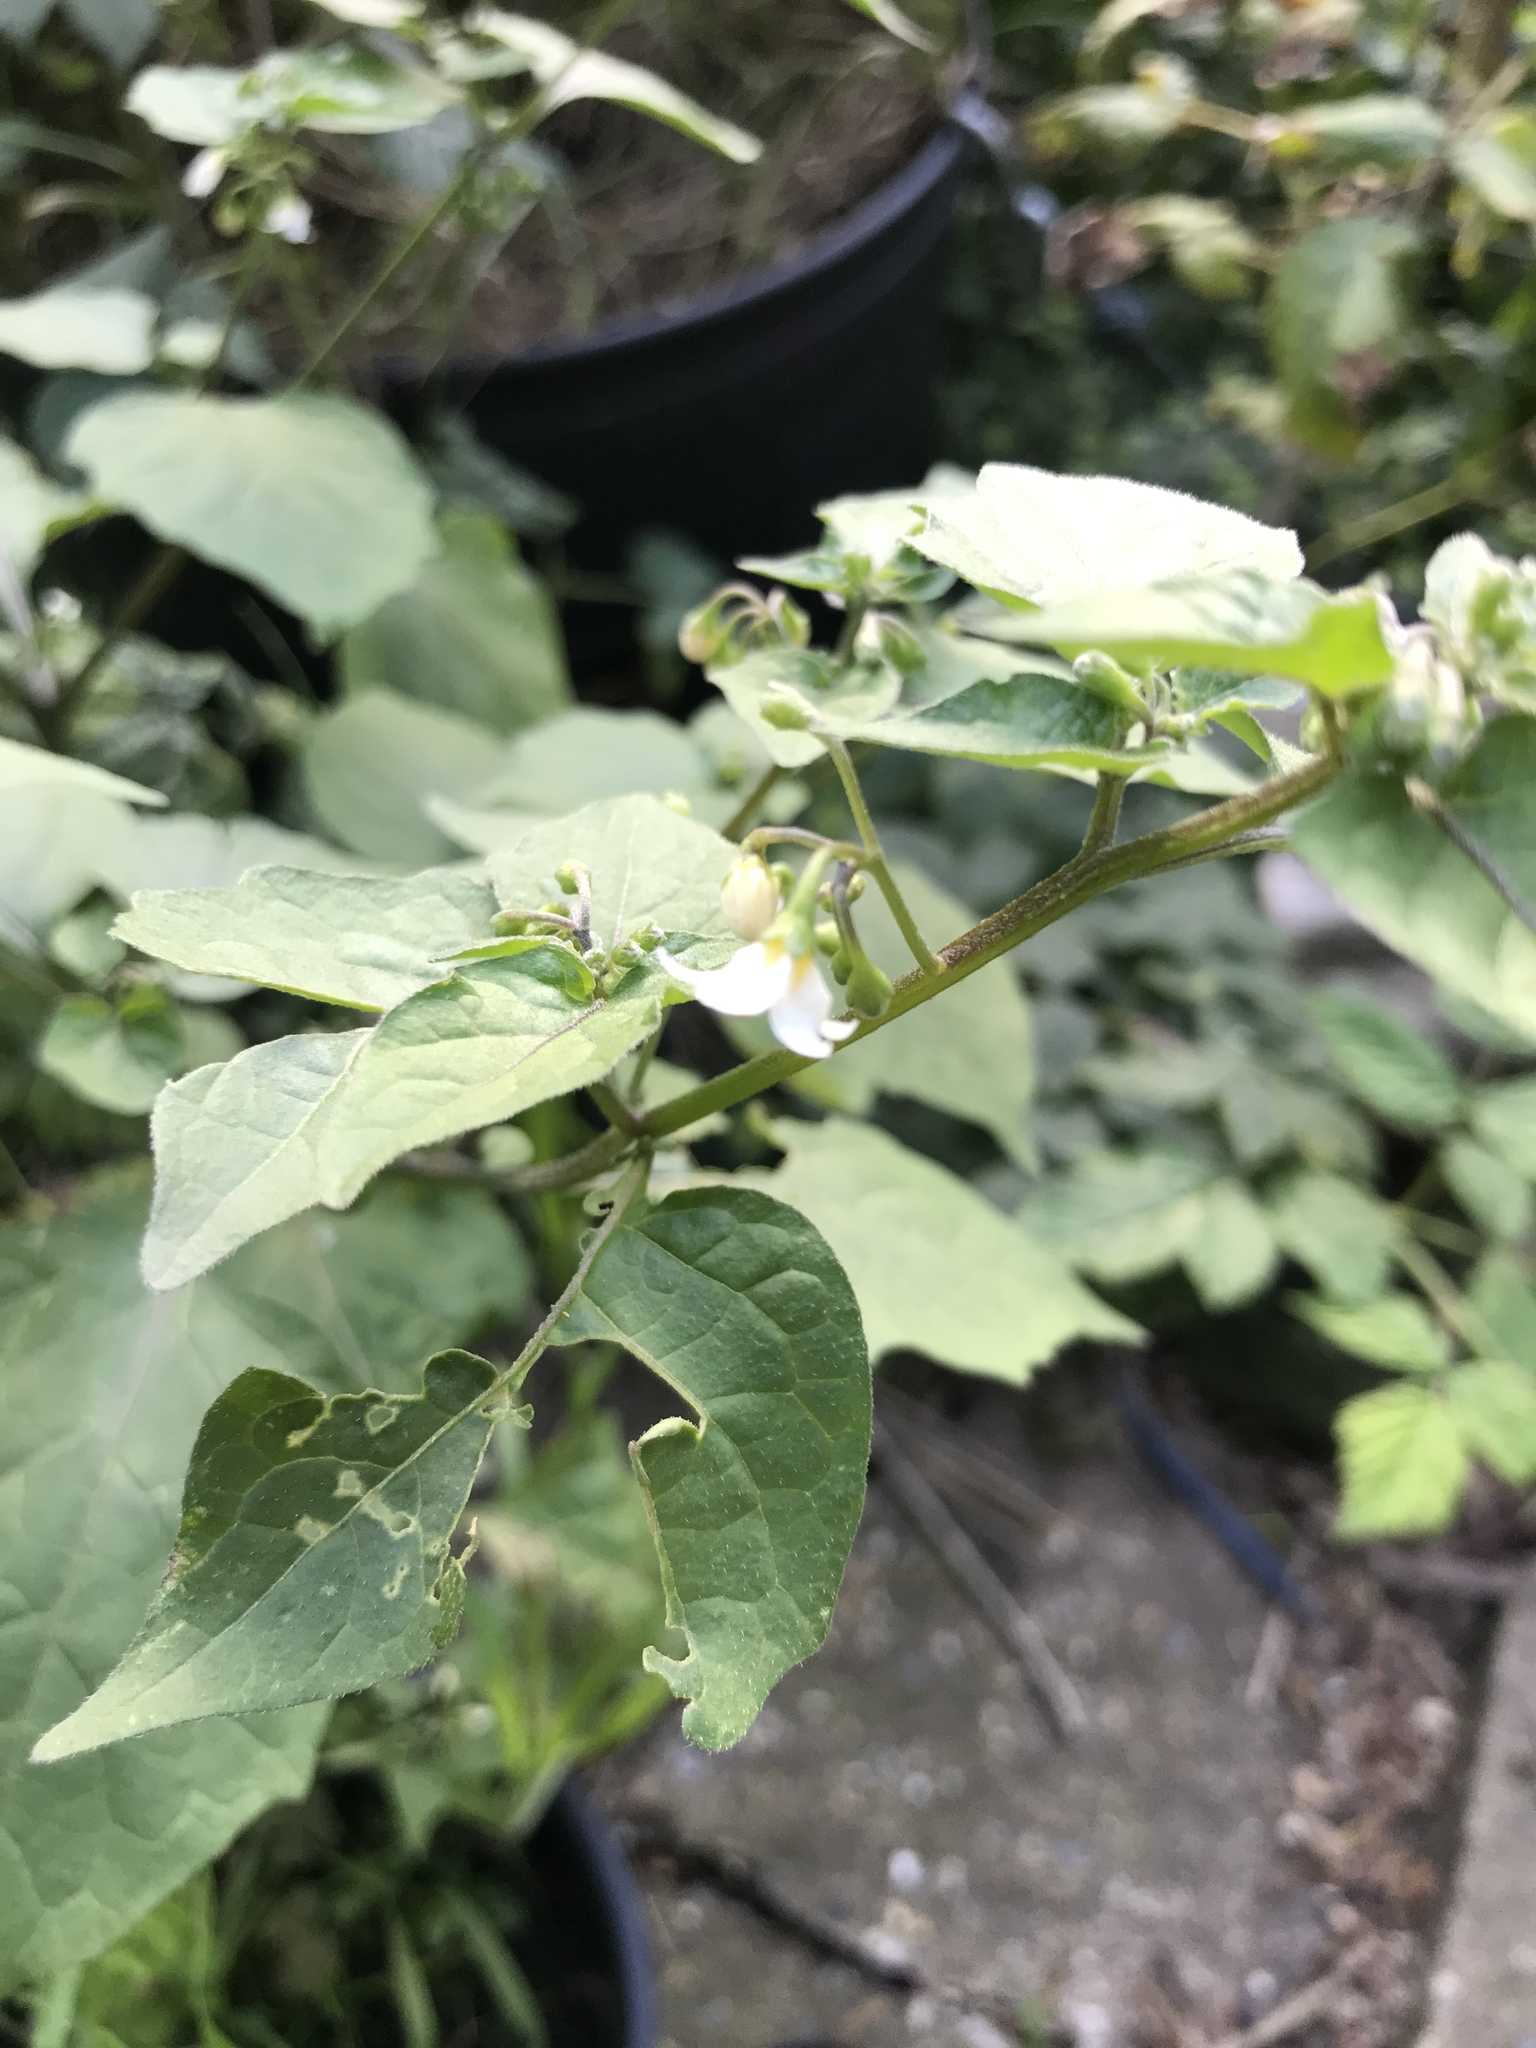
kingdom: Plantae
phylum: Tracheophyta
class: Magnoliopsida
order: Solanales
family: Solanaceae
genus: Solanum
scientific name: Solanum nigrum
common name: Black nightshade
